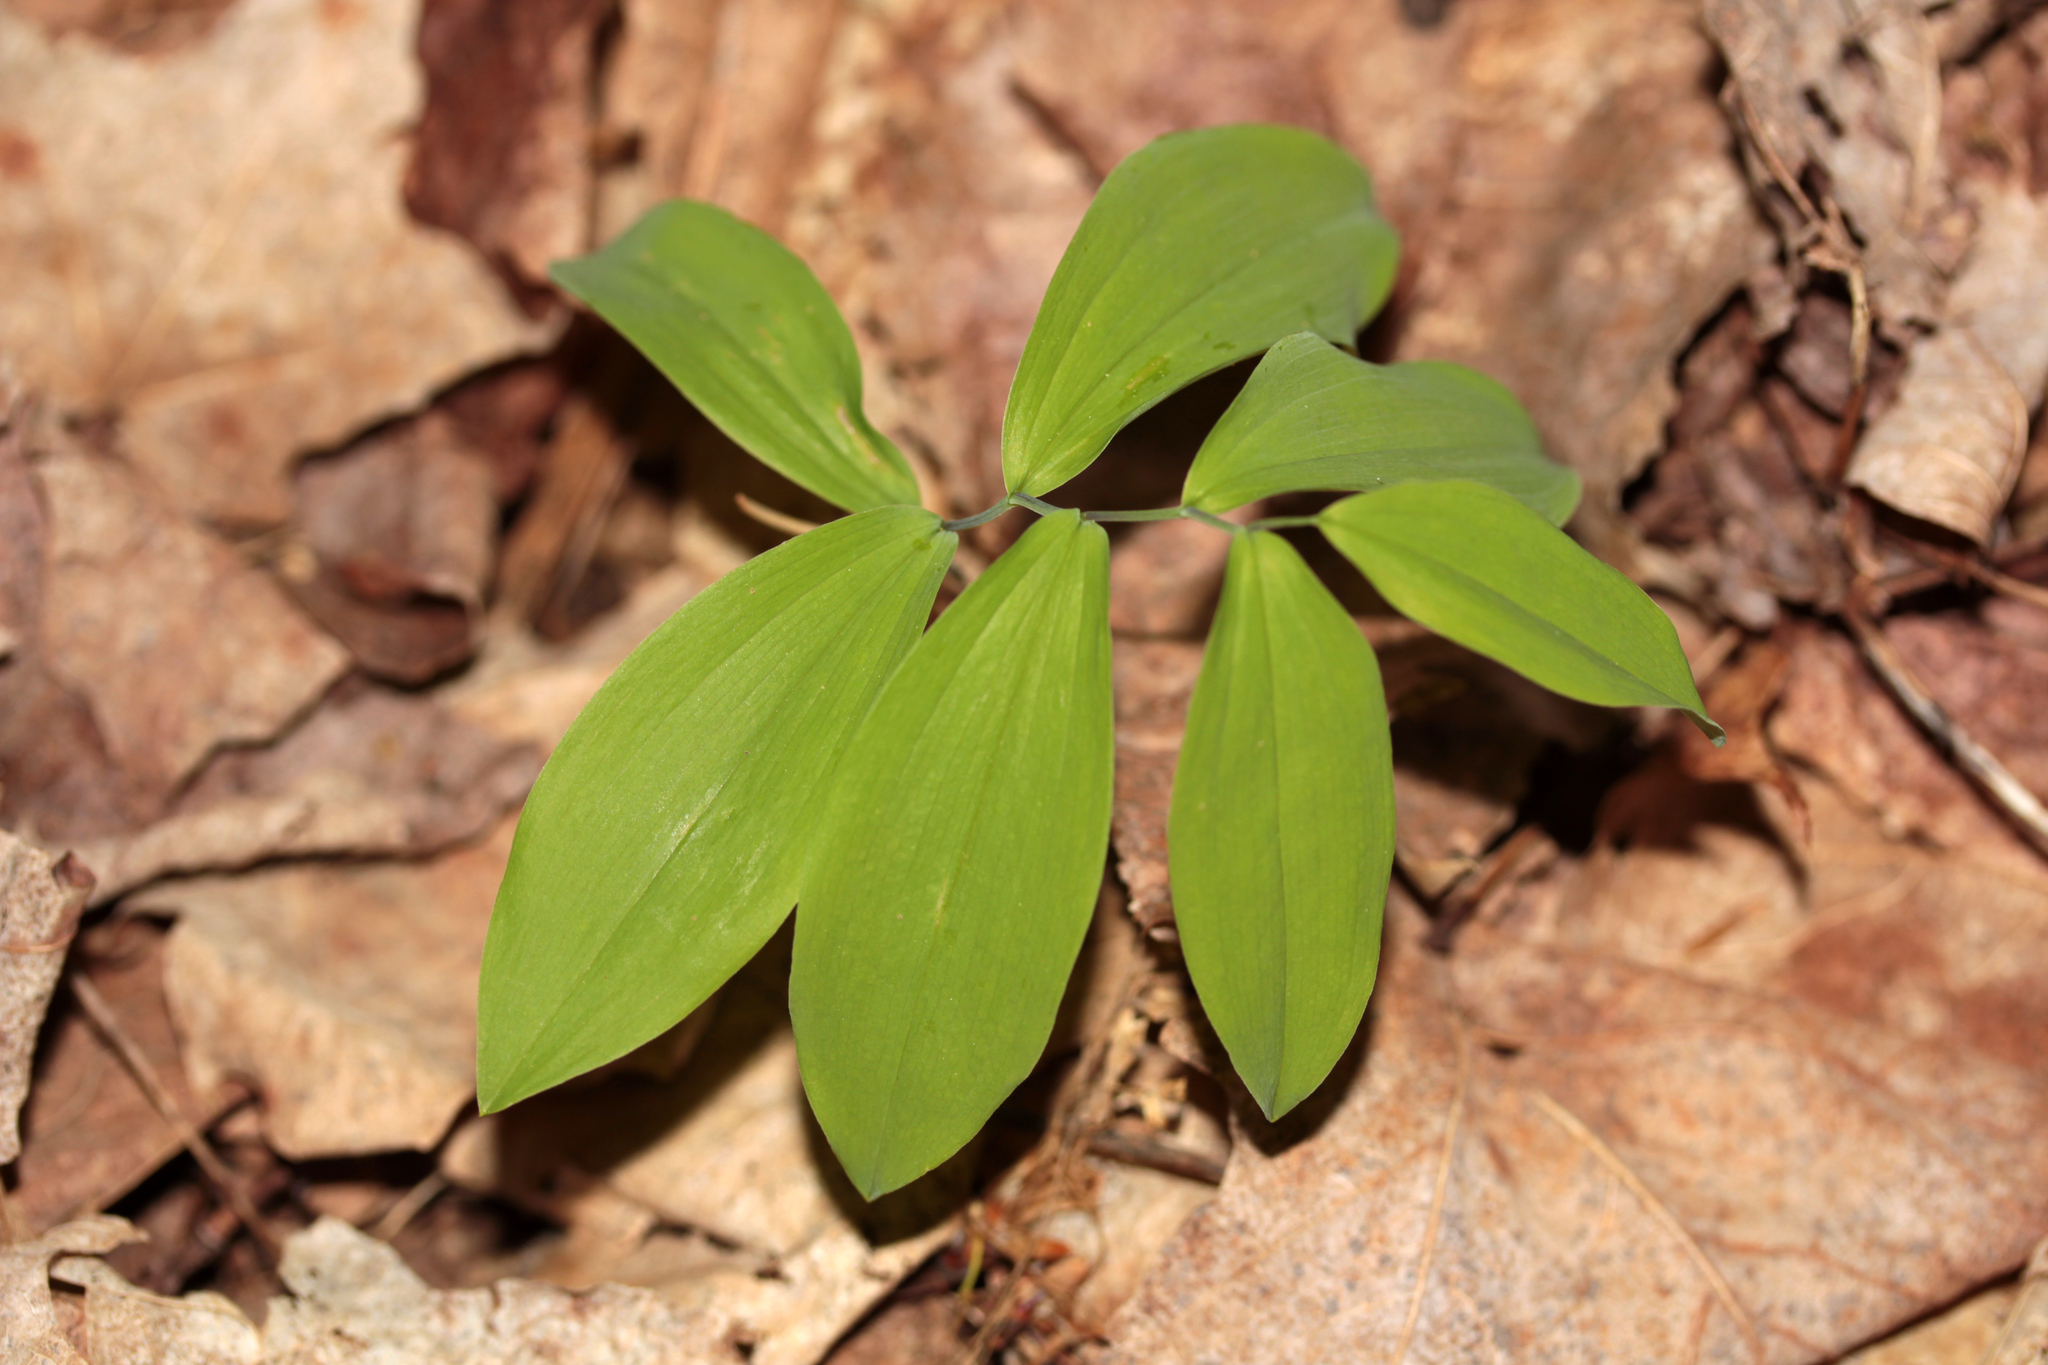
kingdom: Plantae
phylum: Tracheophyta
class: Liliopsida
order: Liliales
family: Colchicaceae
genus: Uvularia
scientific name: Uvularia sessilifolia
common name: Straw-lily
